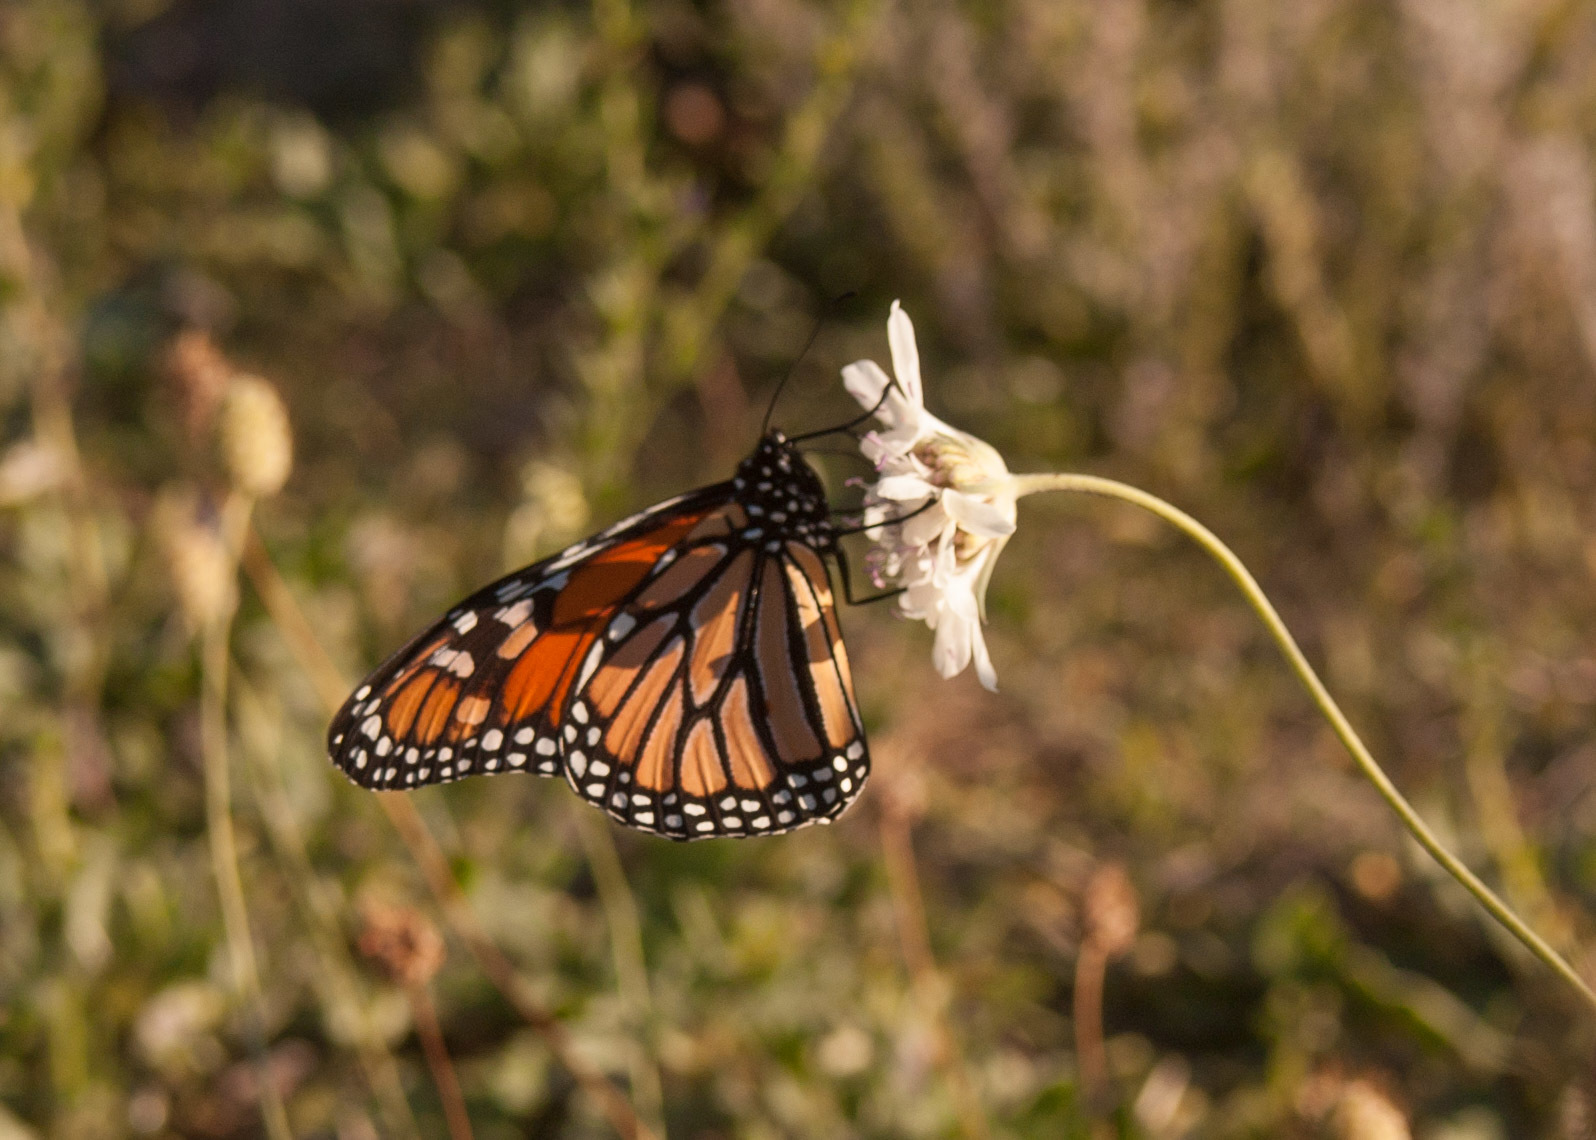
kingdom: Animalia
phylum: Arthropoda
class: Insecta
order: Lepidoptera
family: Nymphalidae
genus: Danaus
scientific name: Danaus plexippus
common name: Monarch
